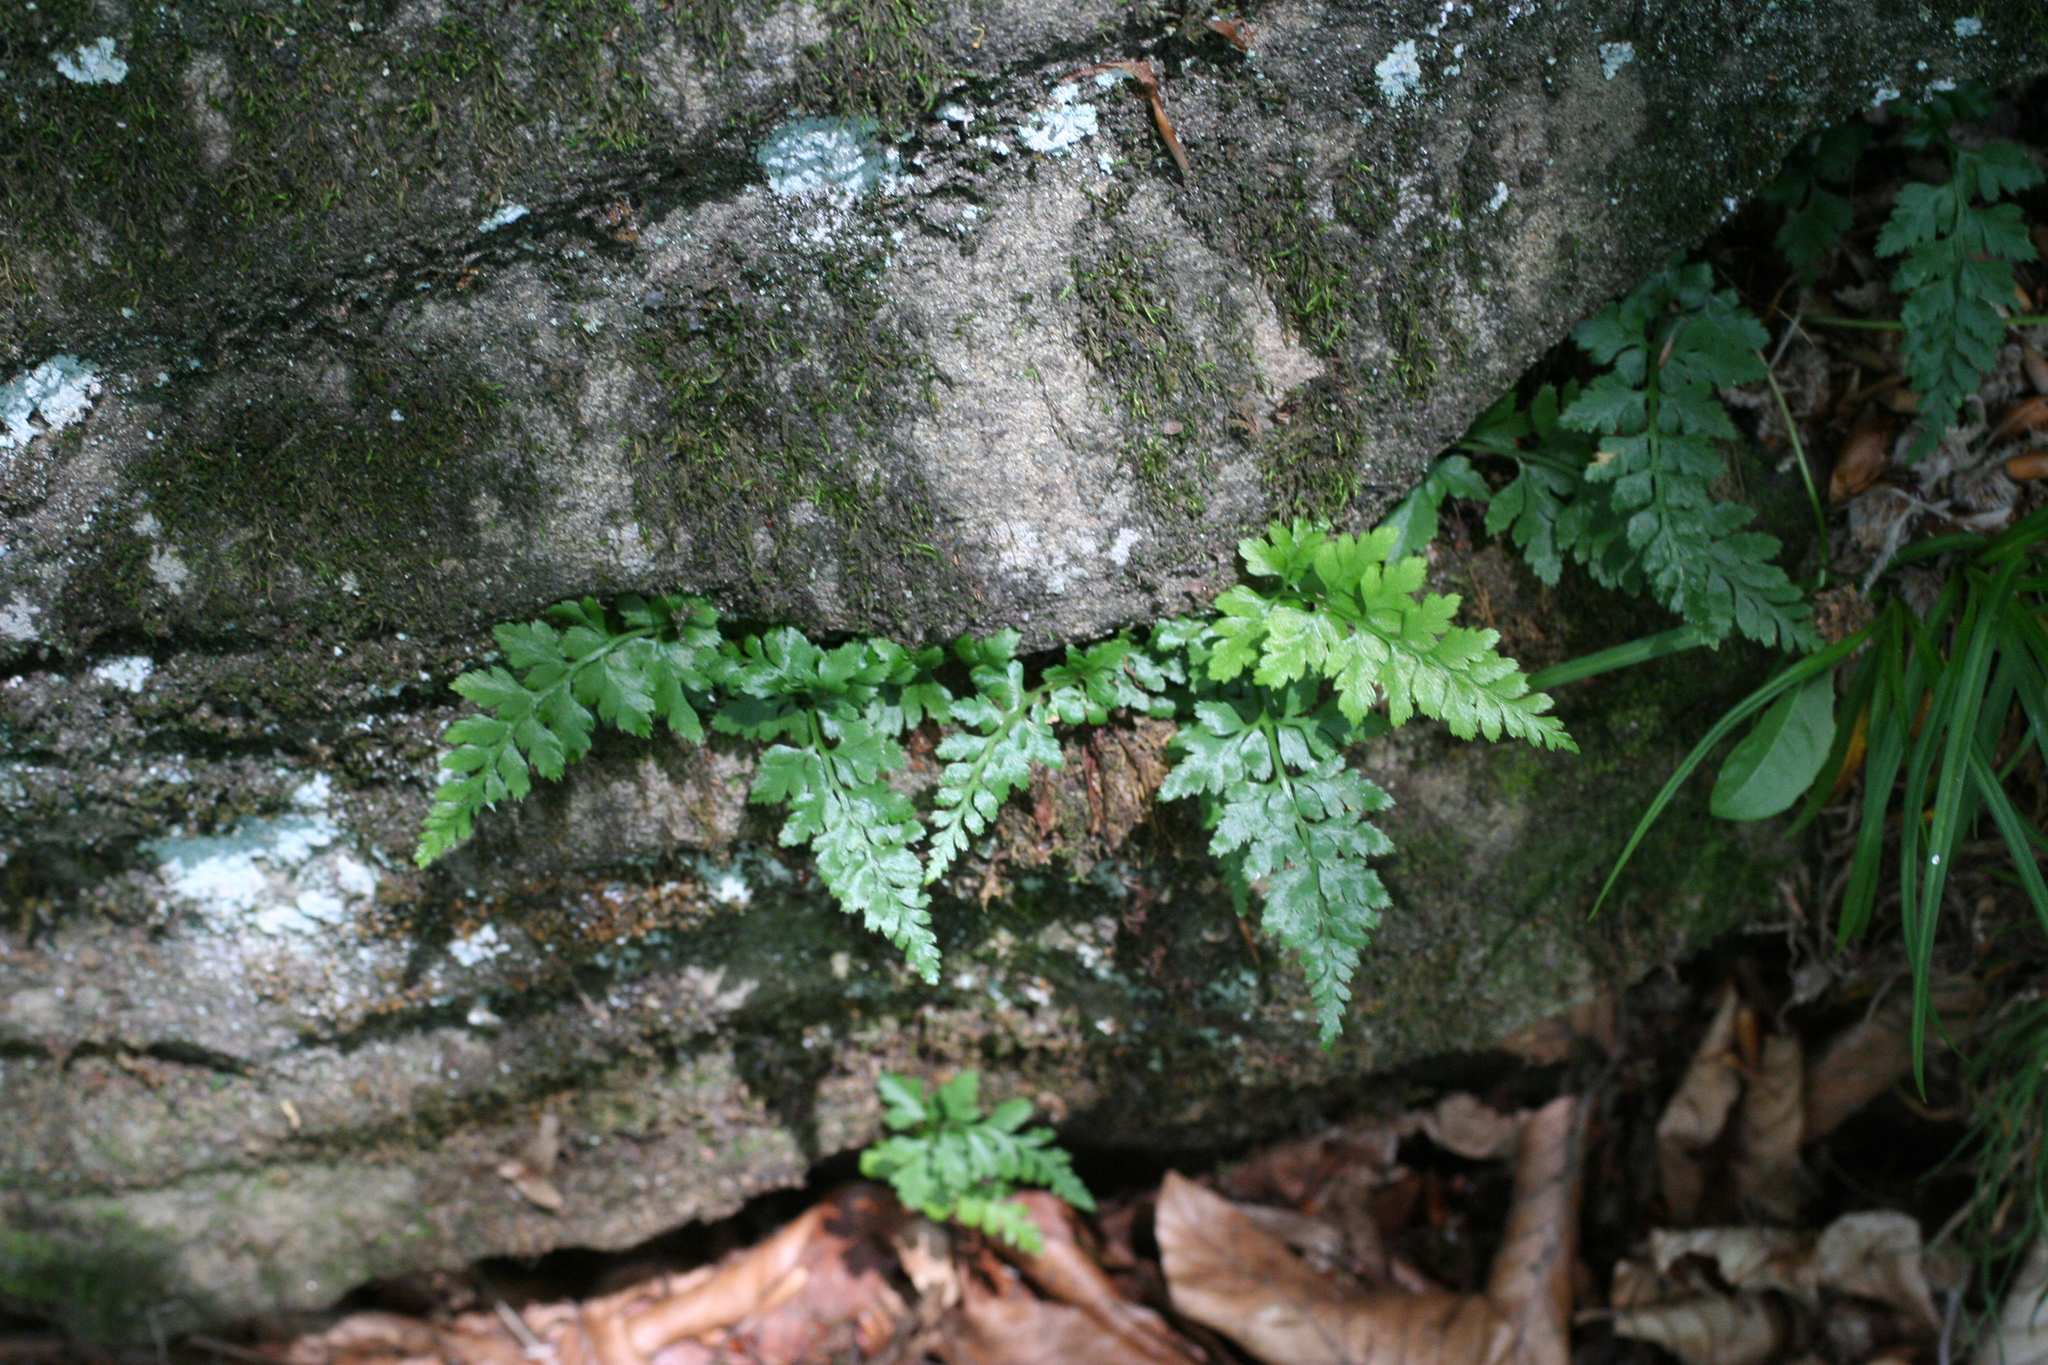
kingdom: Plantae
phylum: Tracheophyta
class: Polypodiopsida
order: Polypodiales
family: Aspleniaceae
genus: Asplenium
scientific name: Asplenium adiantum-nigrum
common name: Black spleenwort
